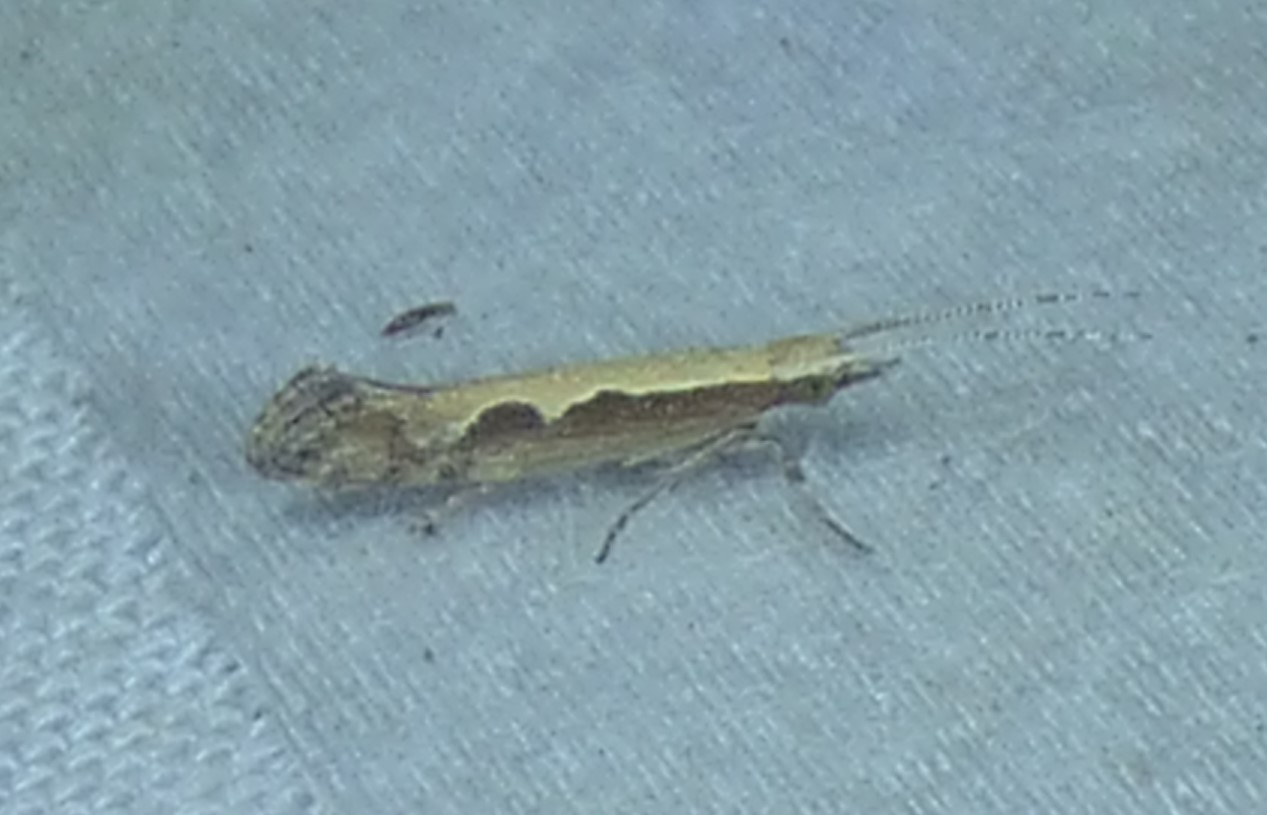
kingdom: Animalia
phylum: Arthropoda
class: Insecta
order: Lepidoptera
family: Plutellidae
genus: Plutella
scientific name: Plutella xylostella
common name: Diamond-back moth
